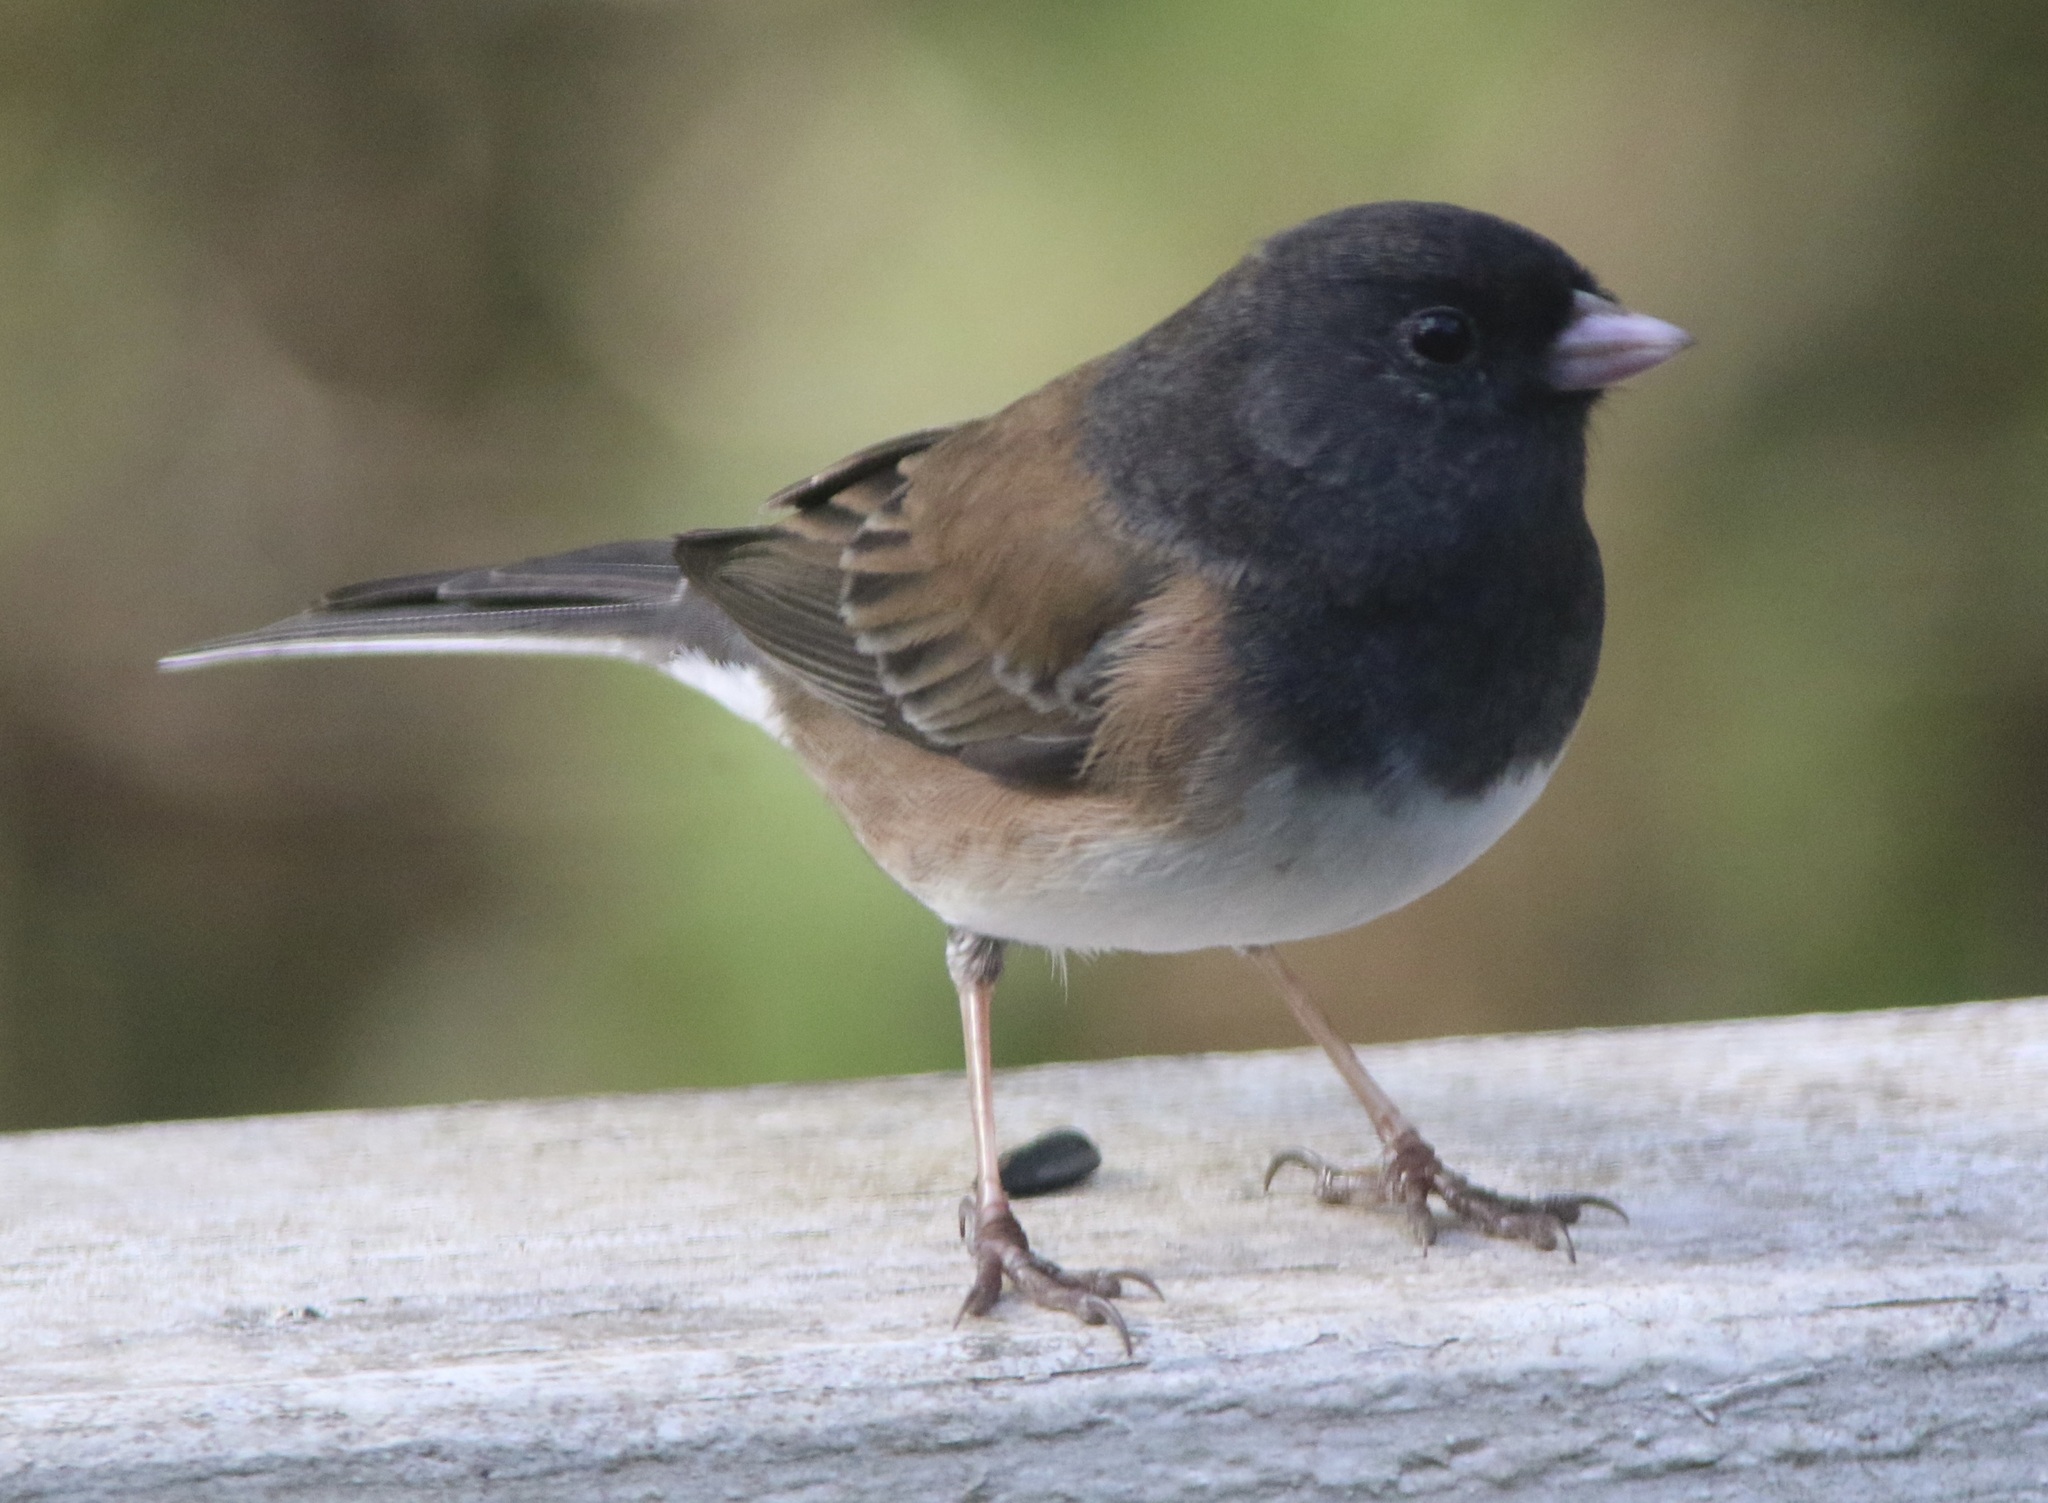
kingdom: Animalia
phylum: Chordata
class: Aves
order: Passeriformes
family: Passerellidae
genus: Junco
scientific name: Junco hyemalis
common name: Dark-eyed junco
